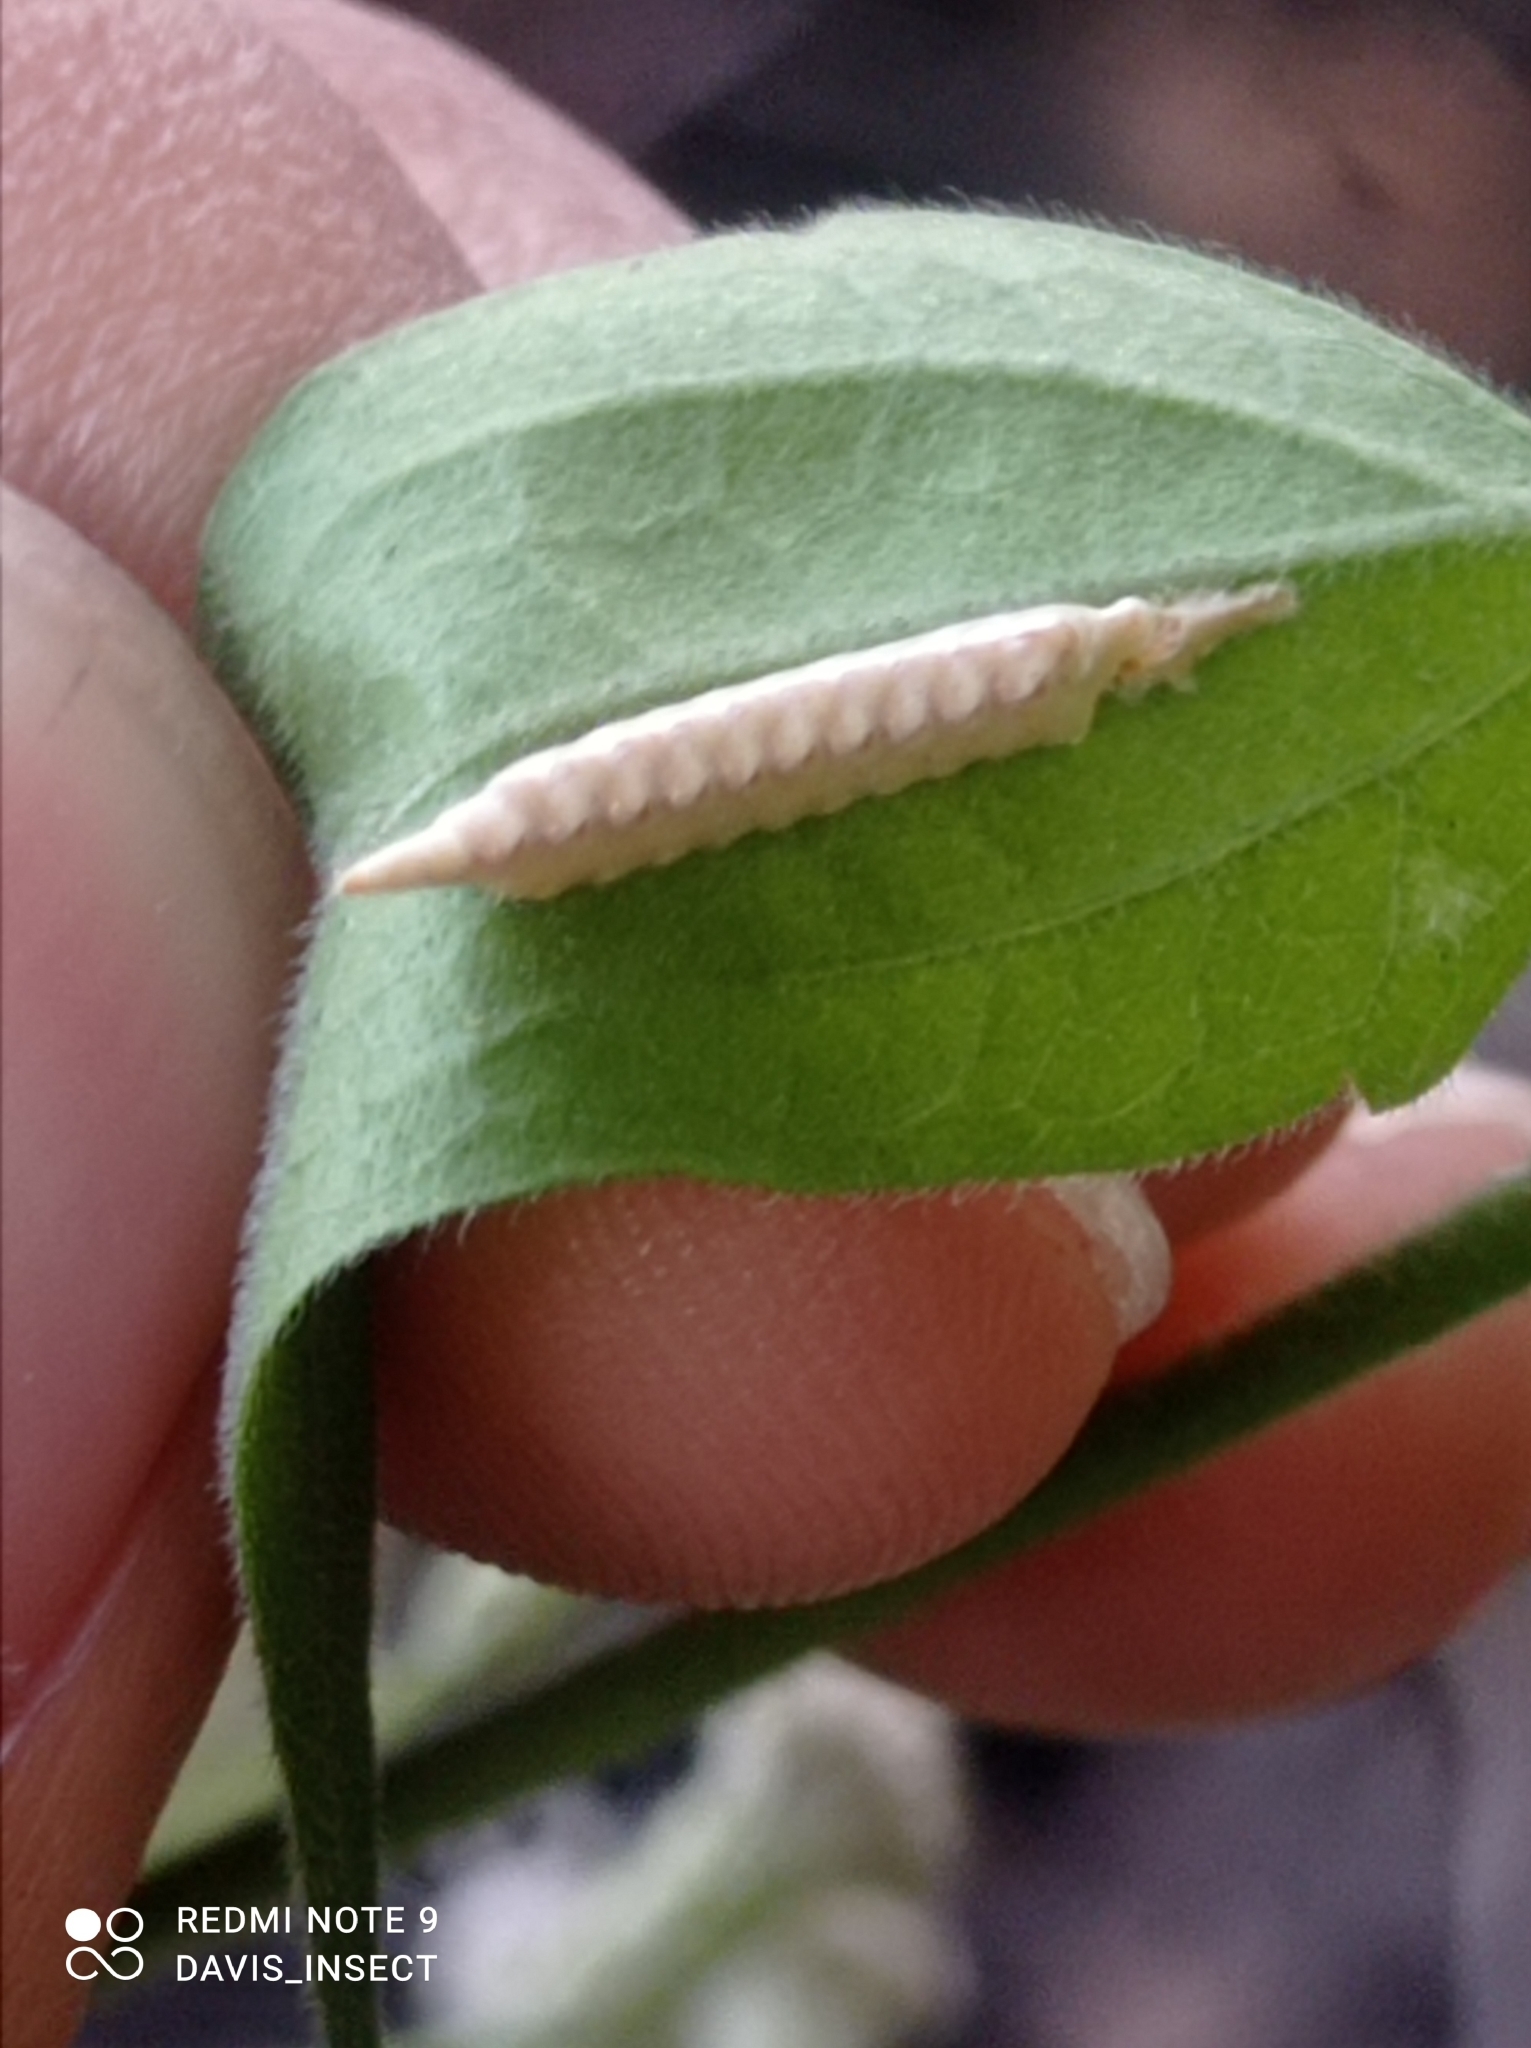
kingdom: Animalia
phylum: Arthropoda
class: Insecta
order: Mantodea
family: Nanomantidae
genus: Tropidomantis
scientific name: Tropidomantis tenera
